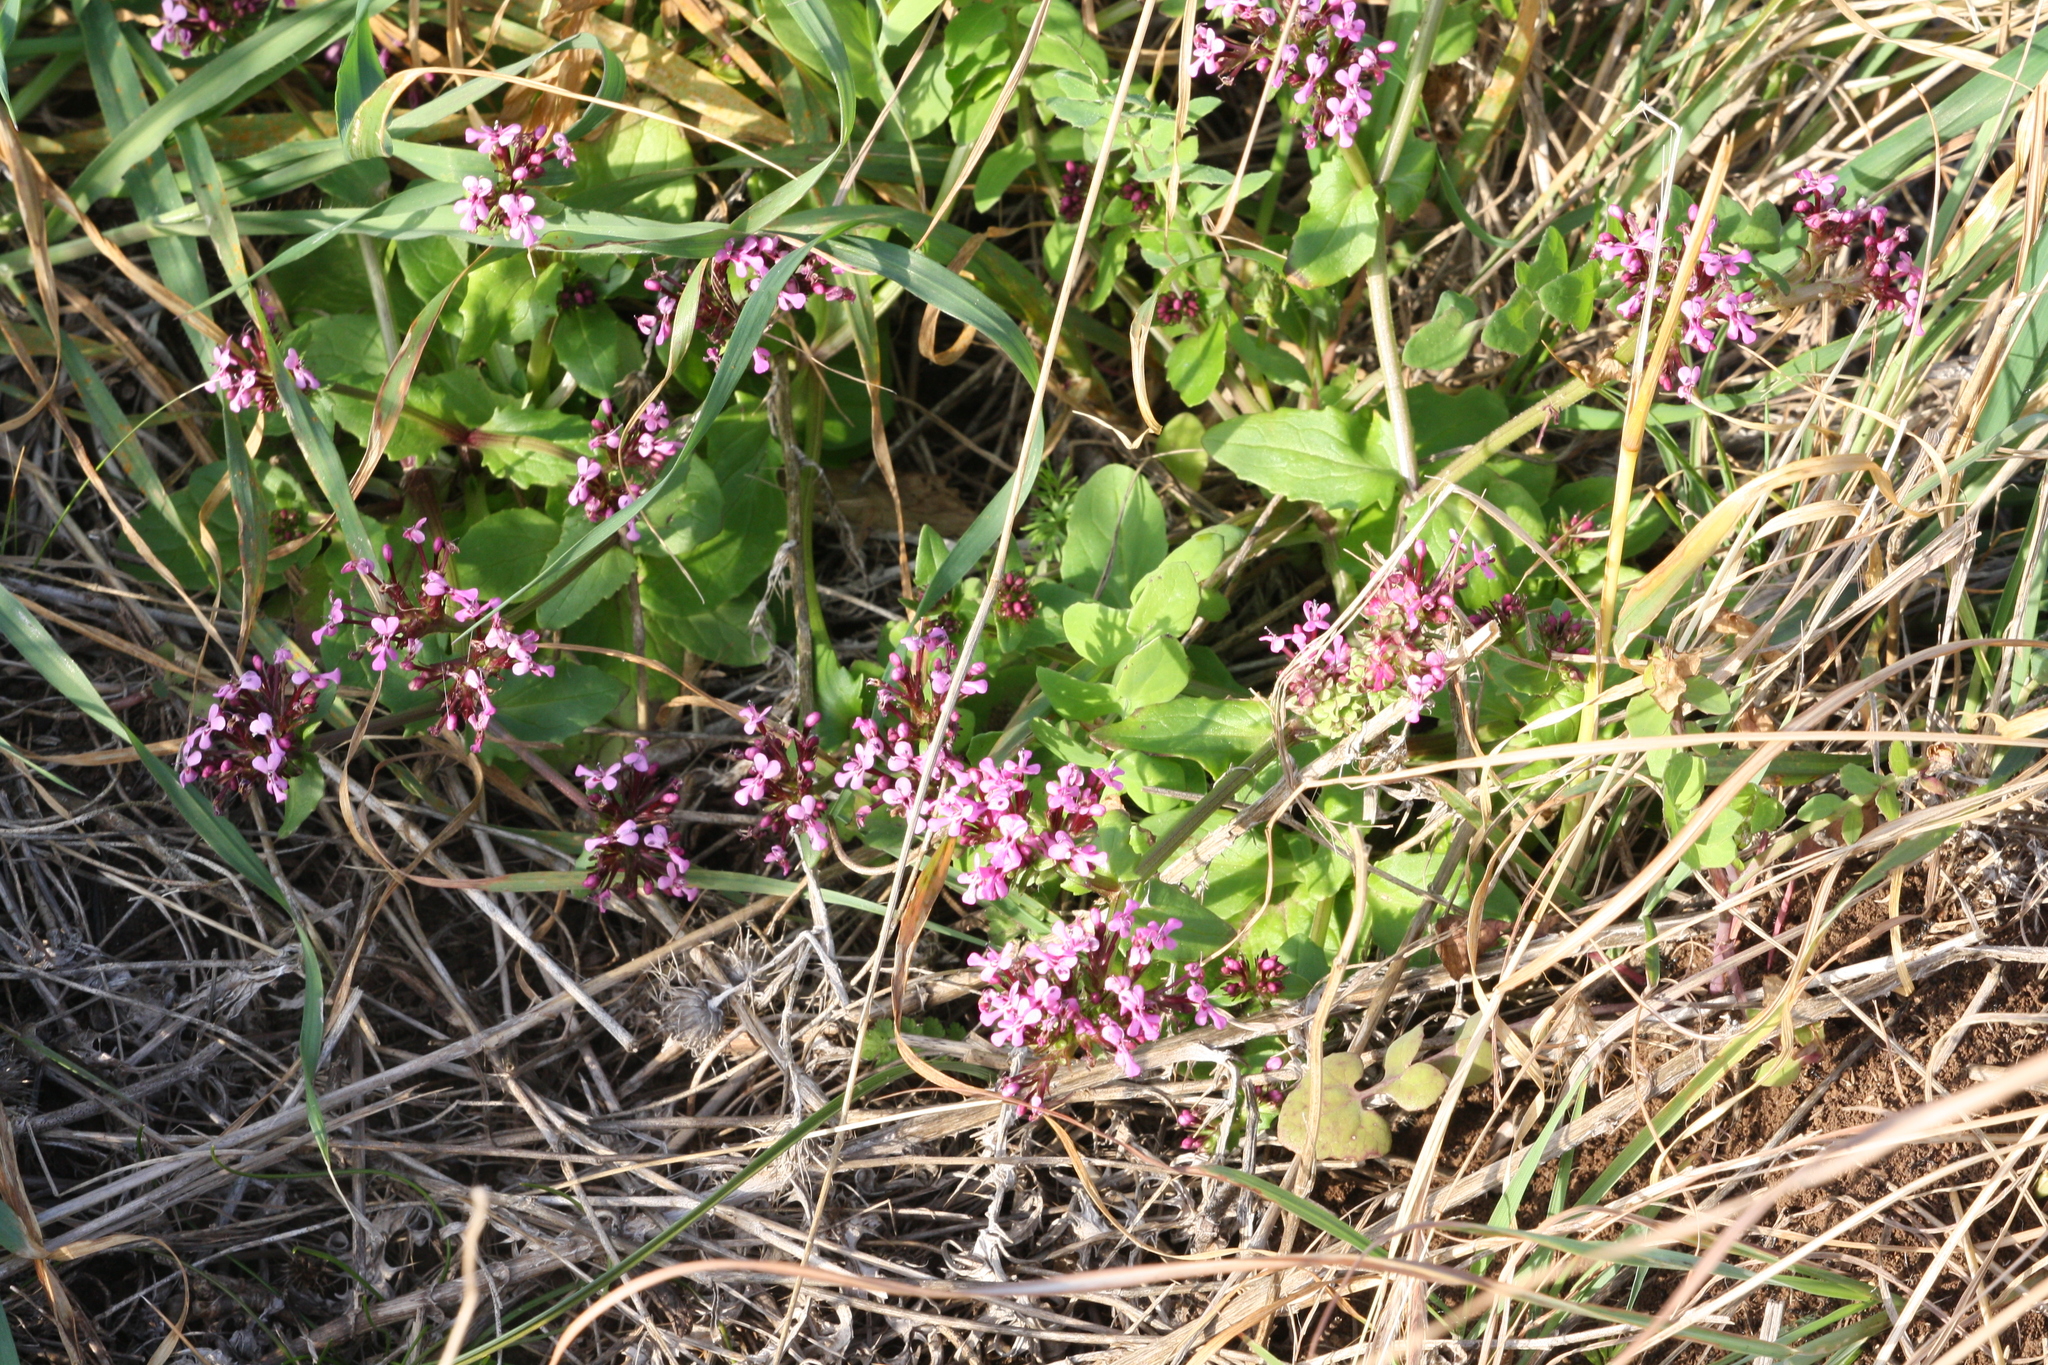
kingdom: Plantae
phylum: Tracheophyta
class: Magnoliopsida
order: Dipsacales
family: Caprifoliaceae
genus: Fedia
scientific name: Fedia graciliflora
